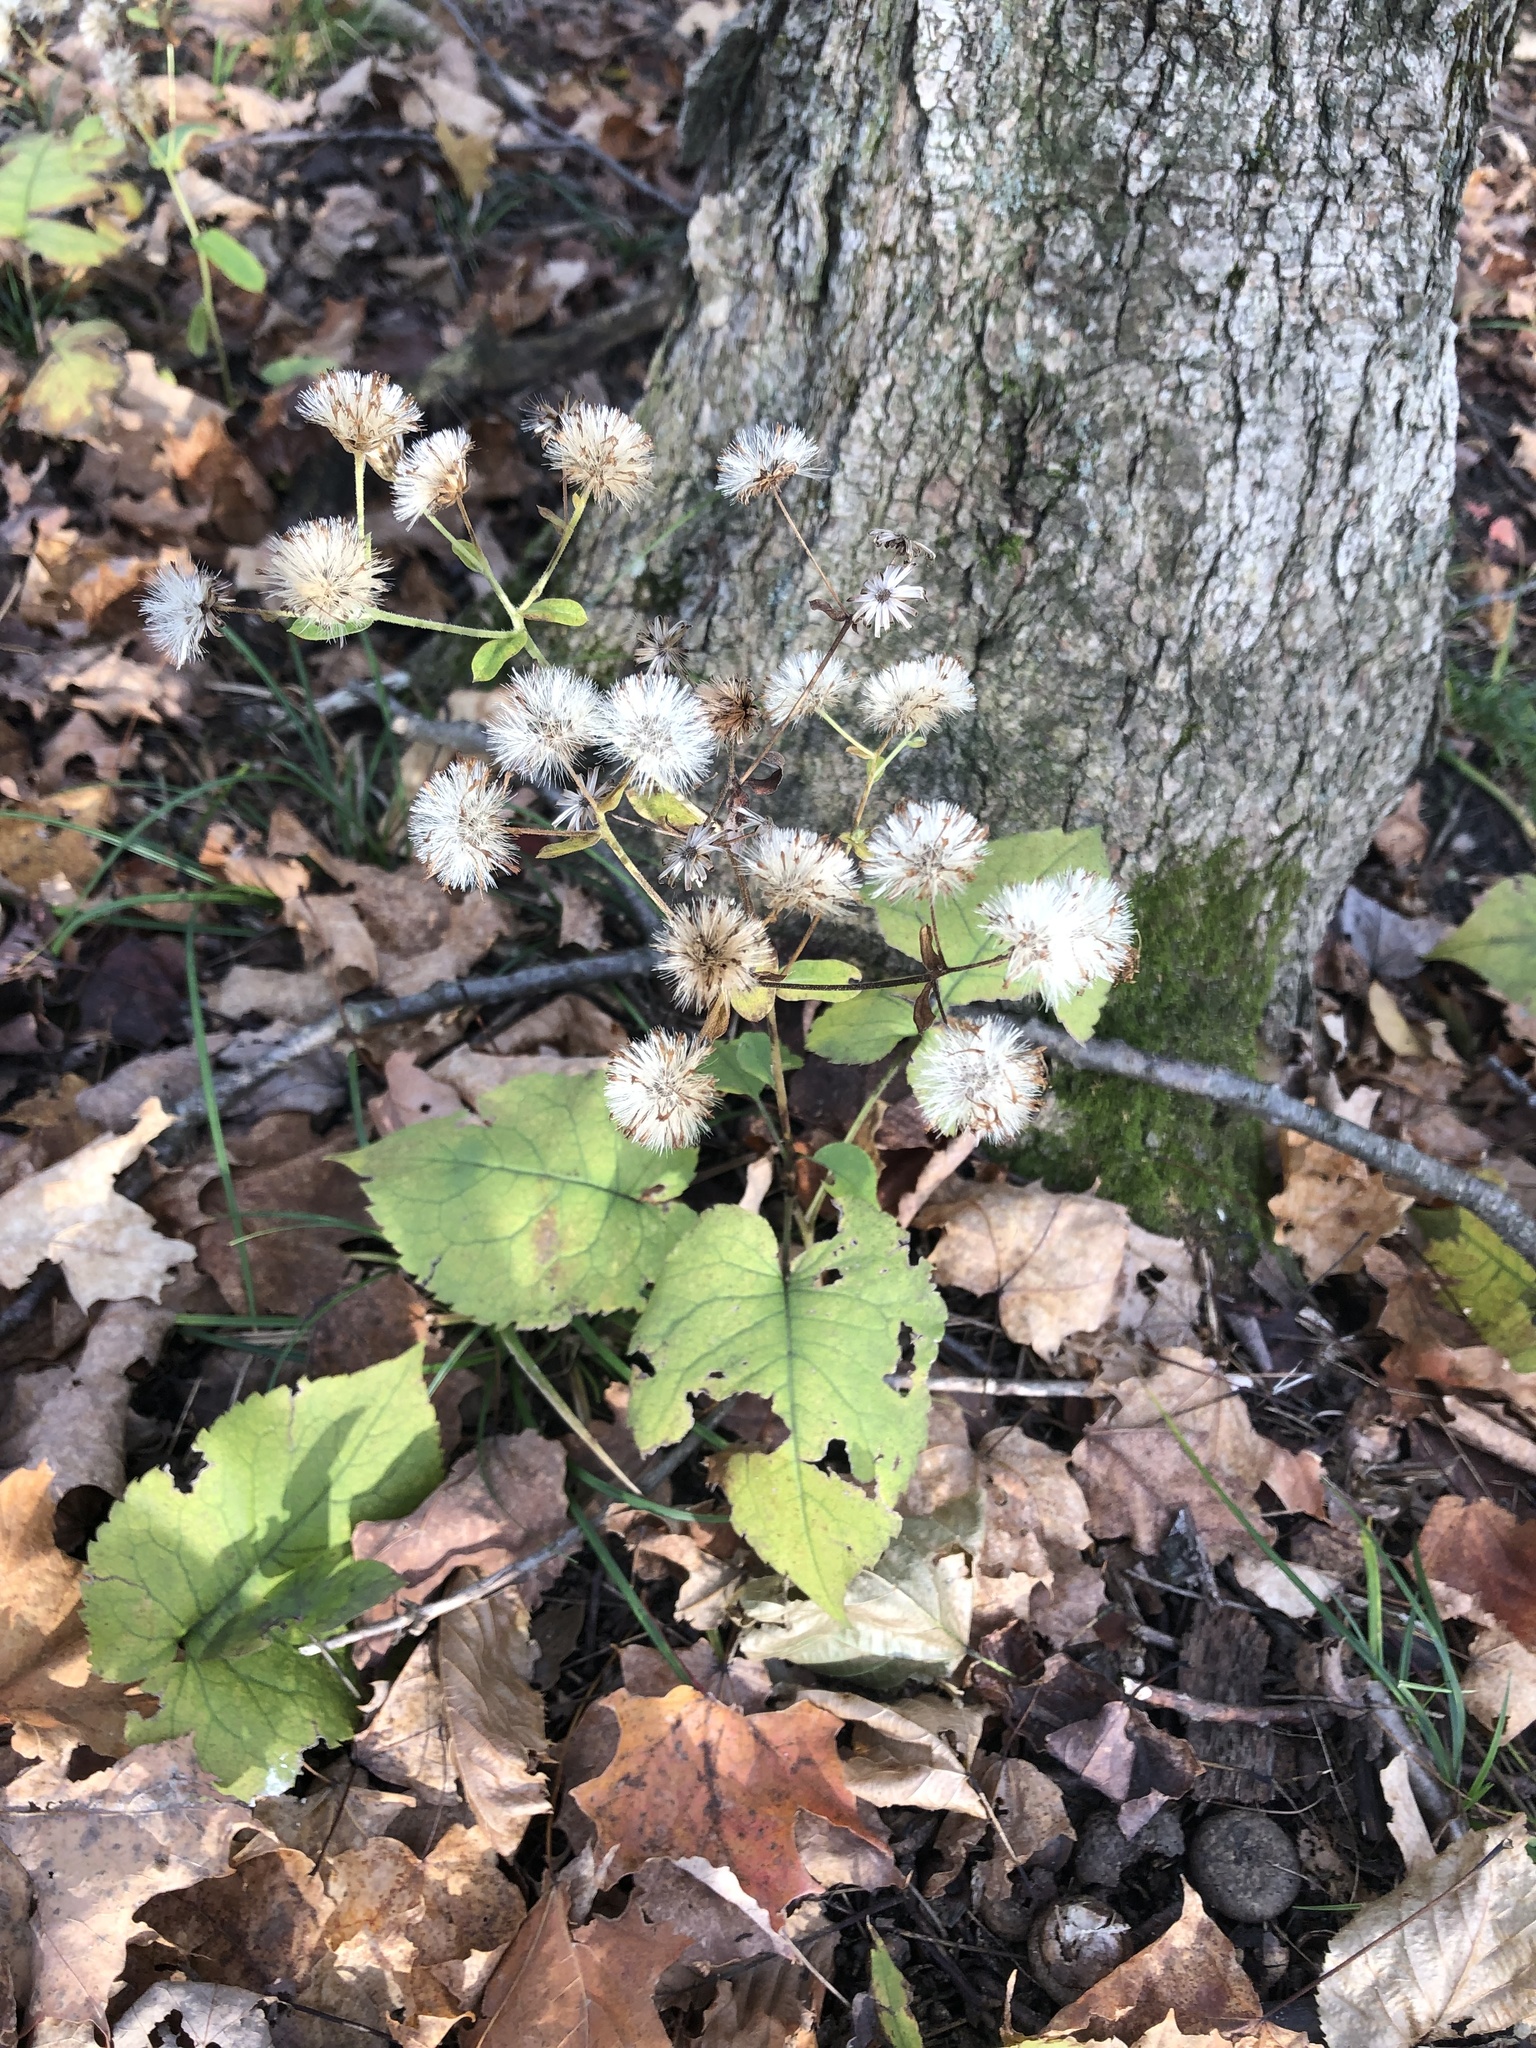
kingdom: Plantae
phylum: Tracheophyta
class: Magnoliopsida
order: Asterales
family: Asteraceae
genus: Eurybia
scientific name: Eurybia macrophylla
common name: Big-leaved aster
